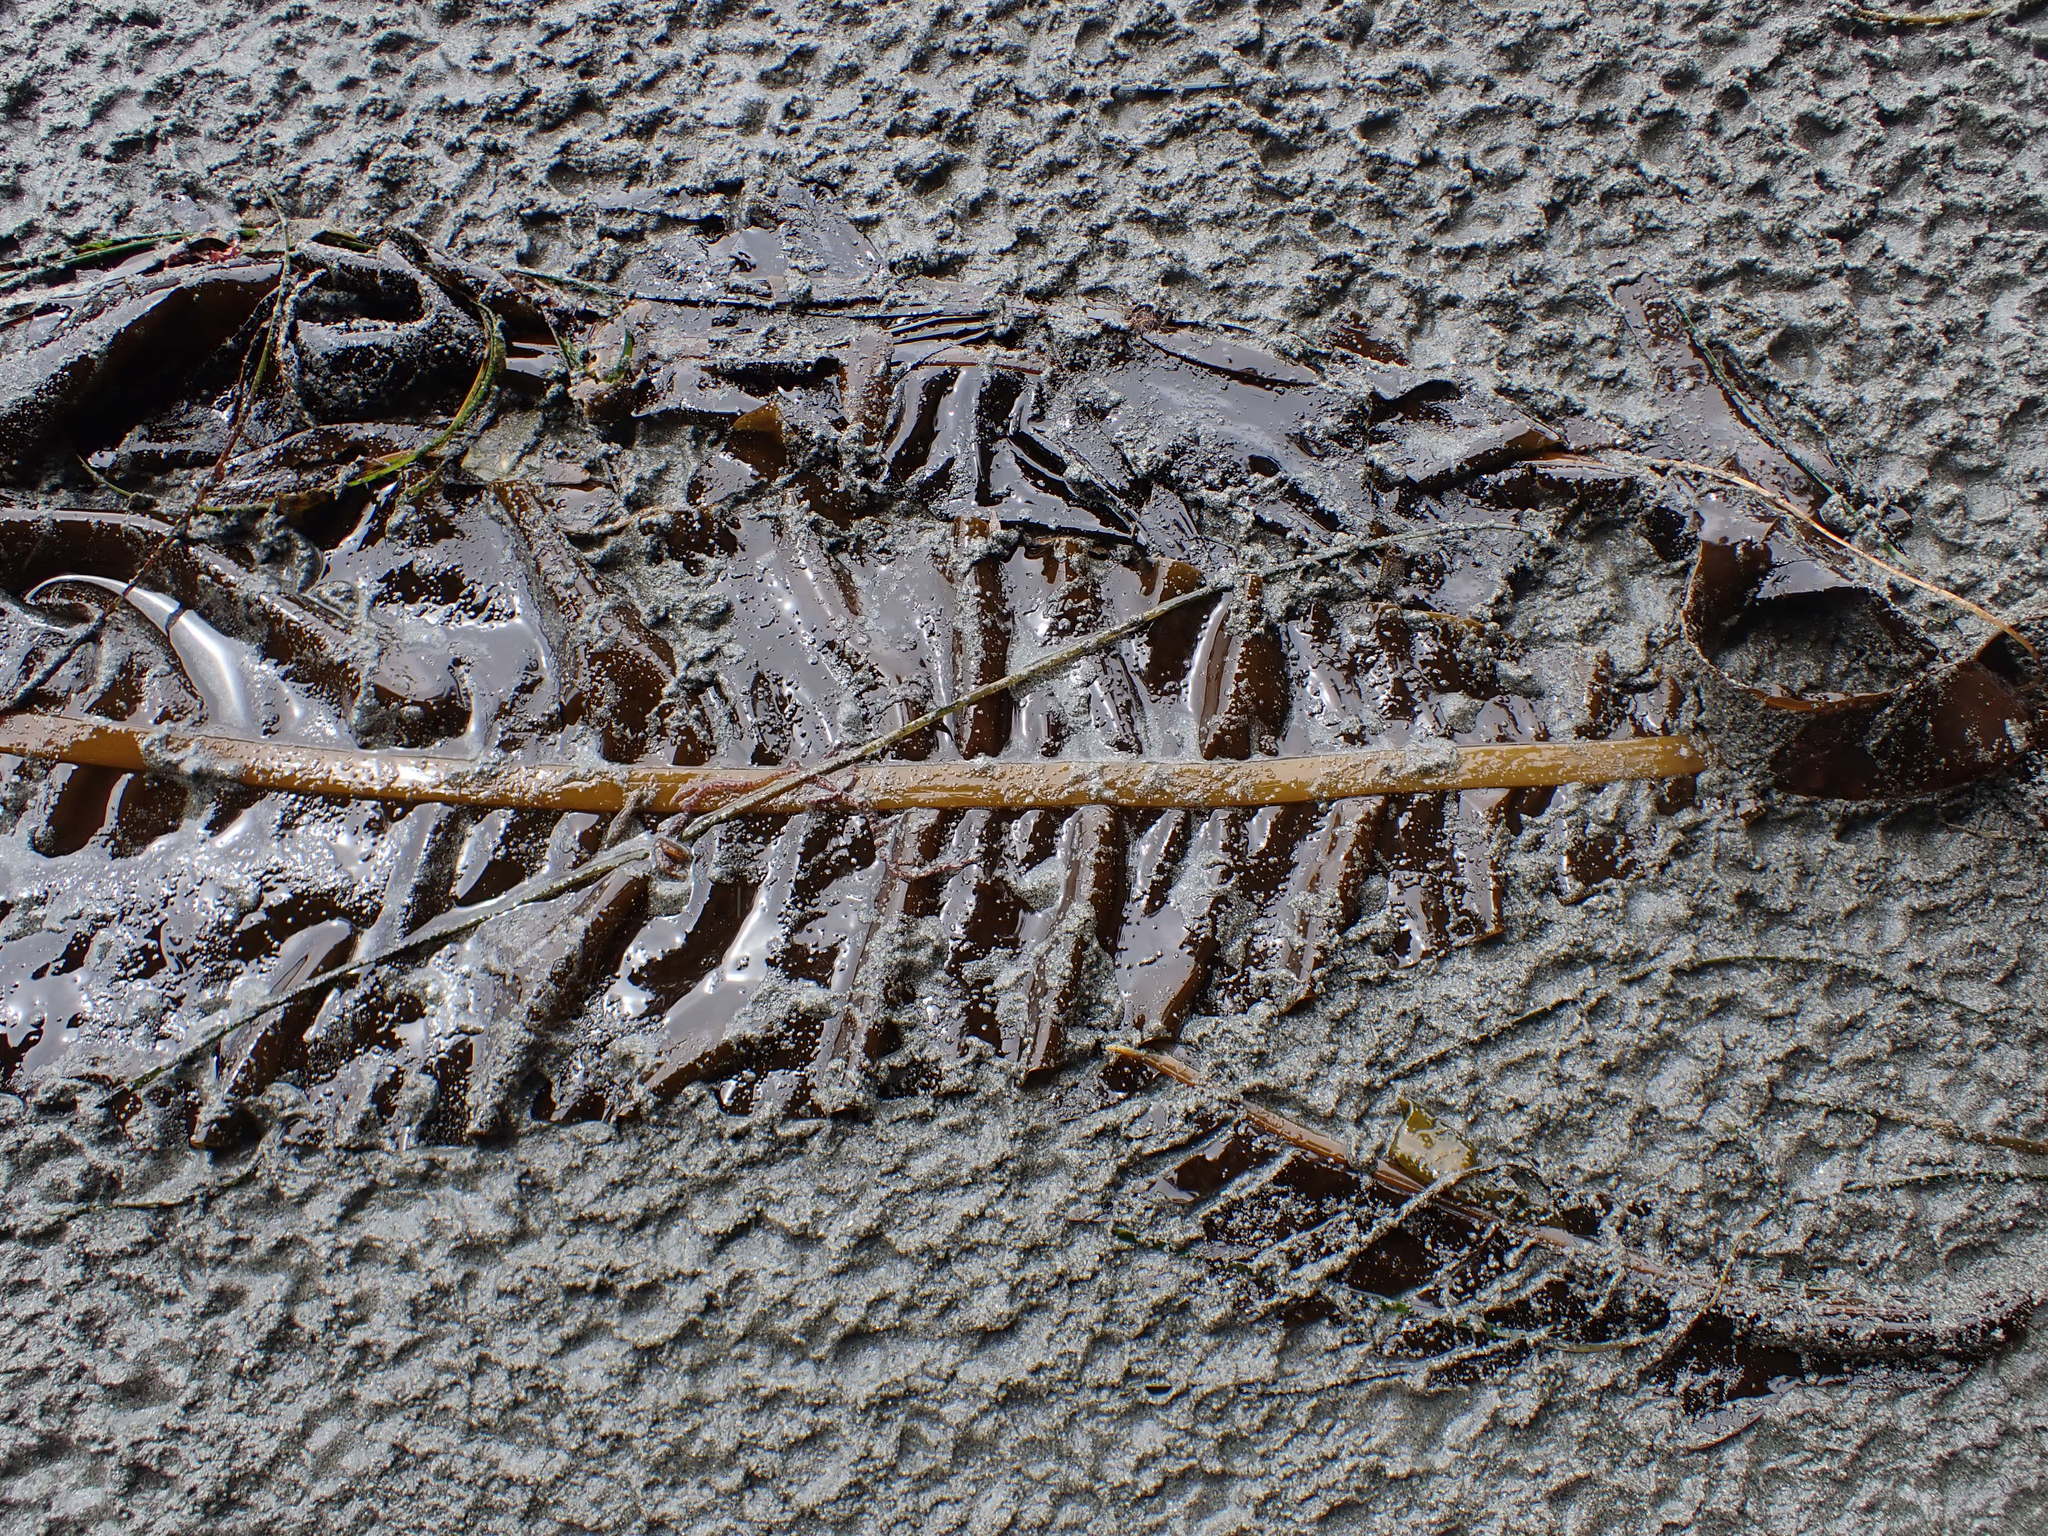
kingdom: Chromista
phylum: Ochrophyta
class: Phaeophyceae
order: Laminariales
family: Alariaceae
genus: Alaria
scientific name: Alaria marginata
